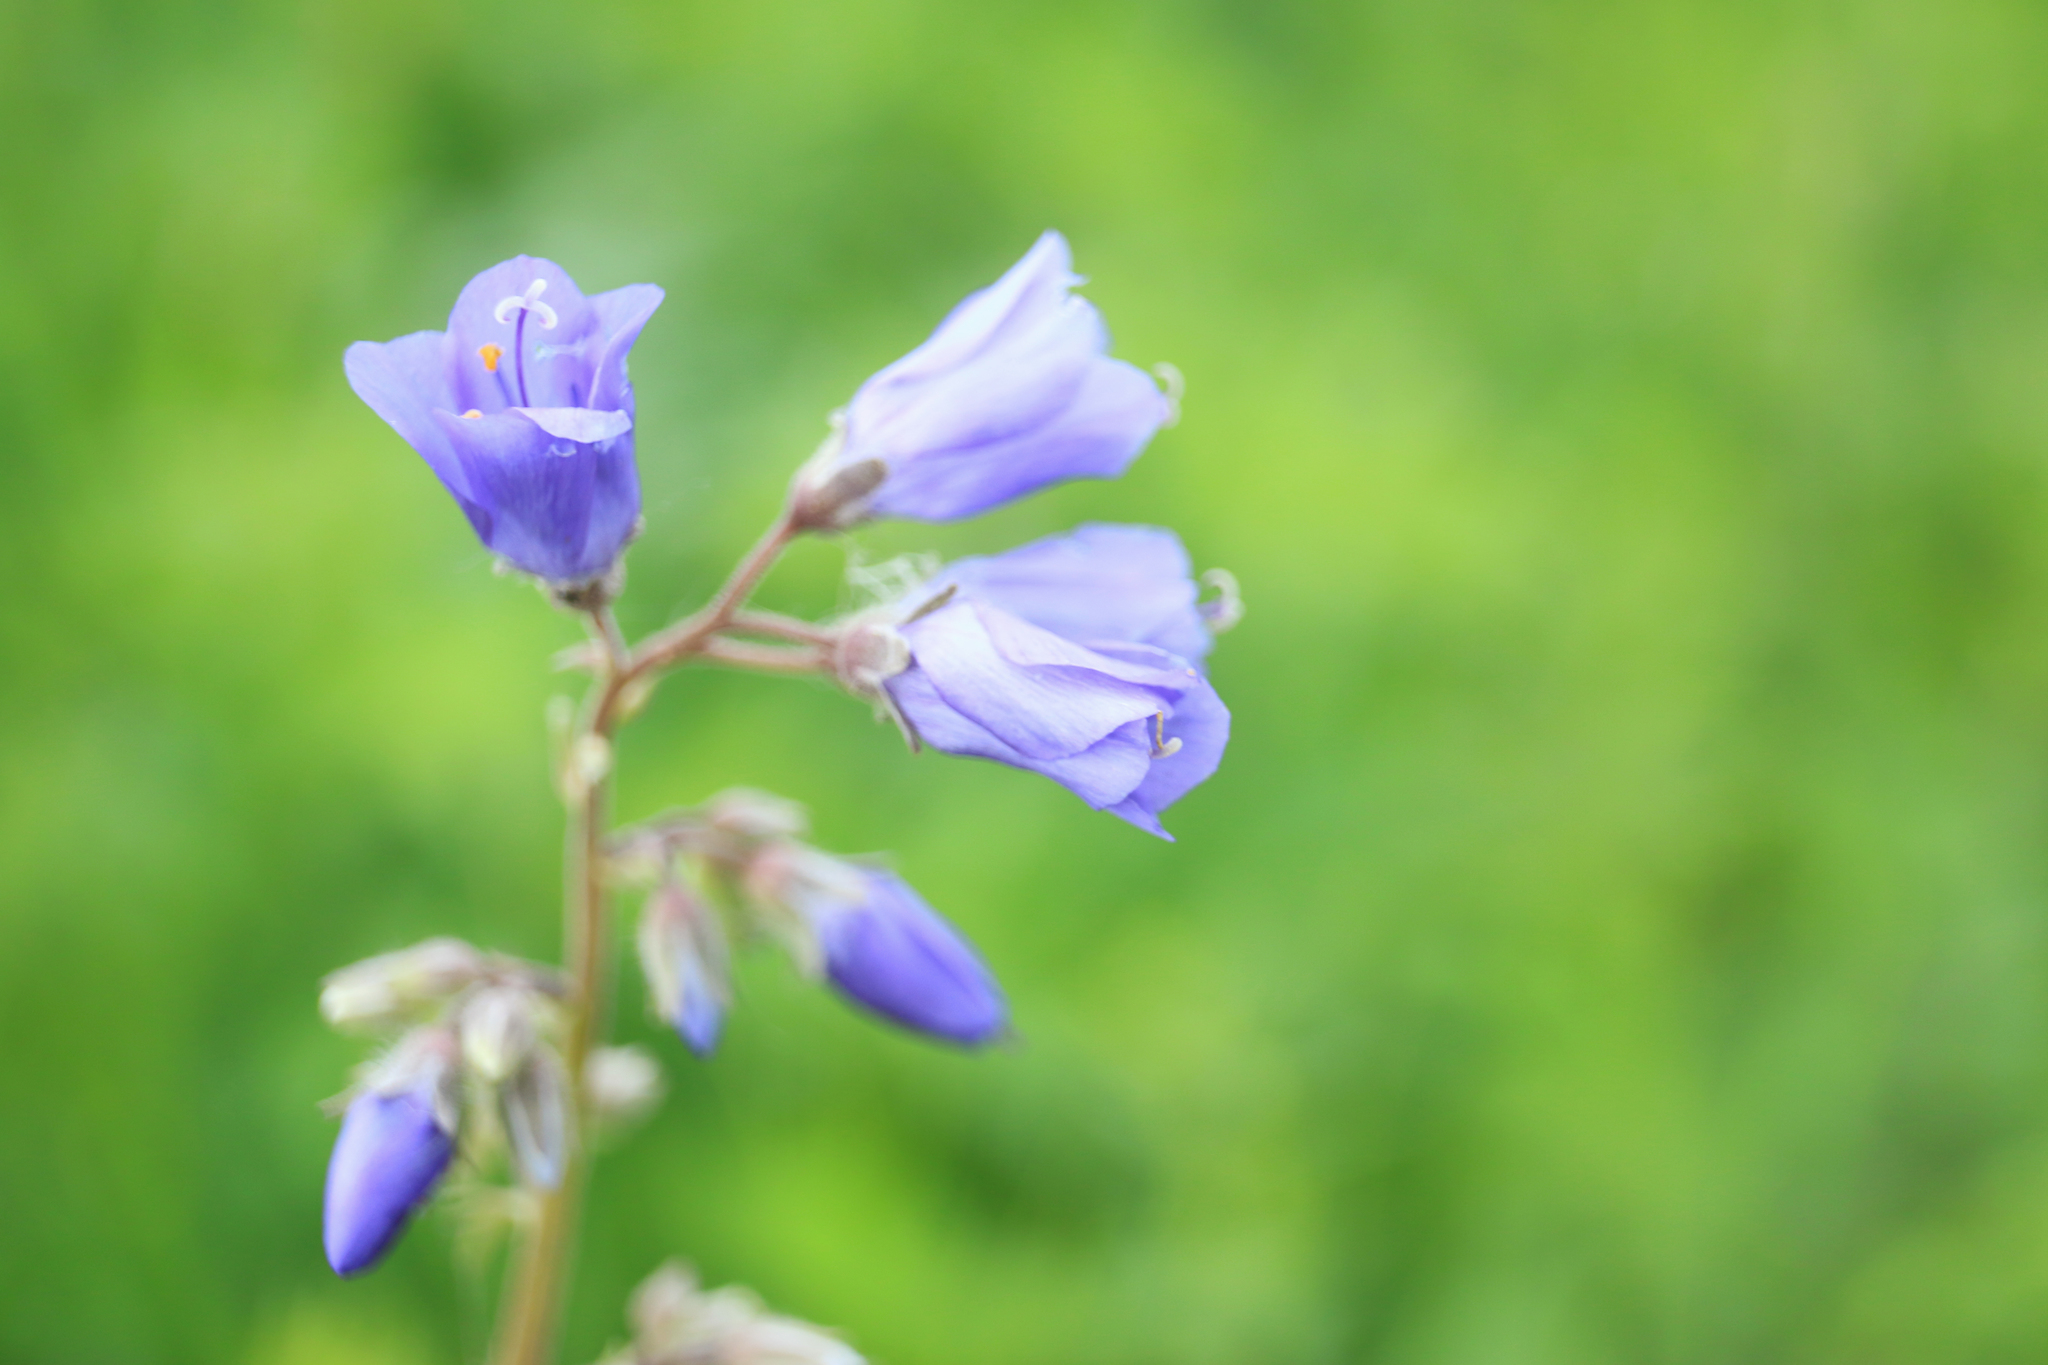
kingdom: Plantae
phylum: Tracheophyta
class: Magnoliopsida
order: Ericales
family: Polemoniaceae
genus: Polemonium
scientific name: Polemonium caeruleum
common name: Jacob's-ladder
